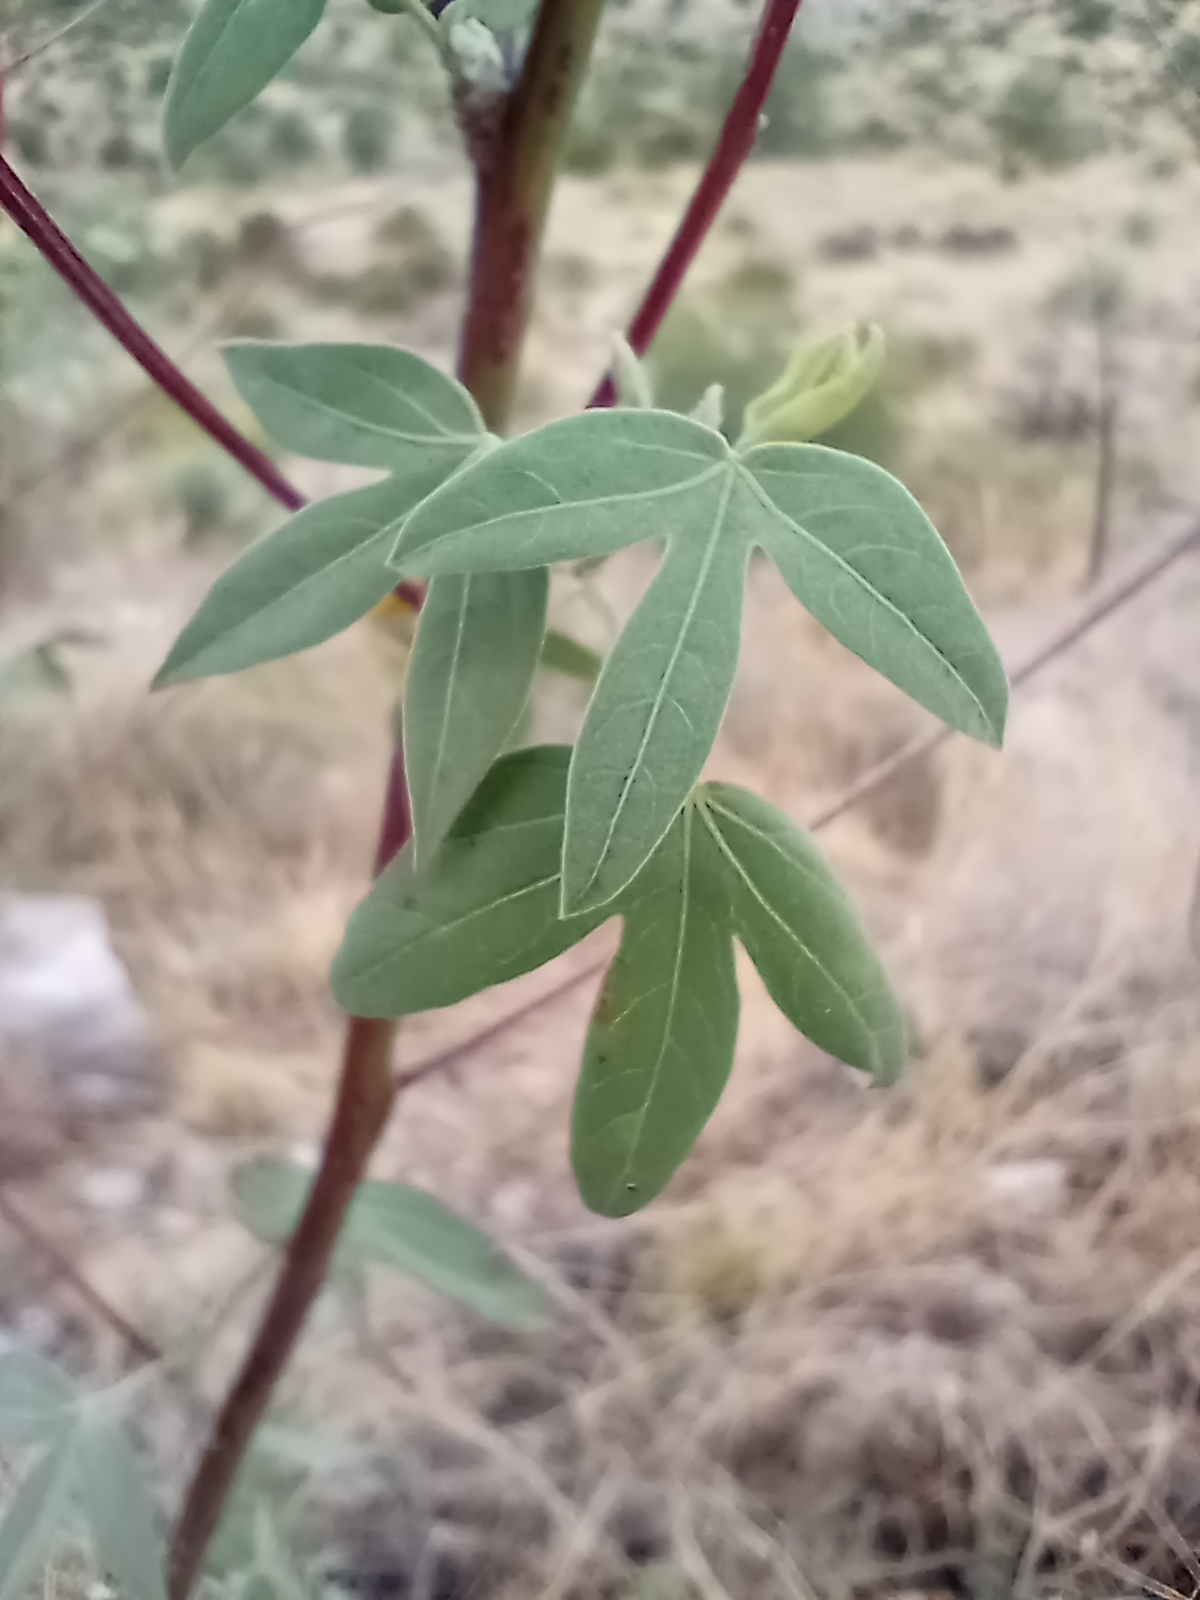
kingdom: Plantae
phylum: Tracheophyta
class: Magnoliopsida
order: Malvales
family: Malvaceae
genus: Gossypium
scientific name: Gossypium thurberi
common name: Desert cotton
